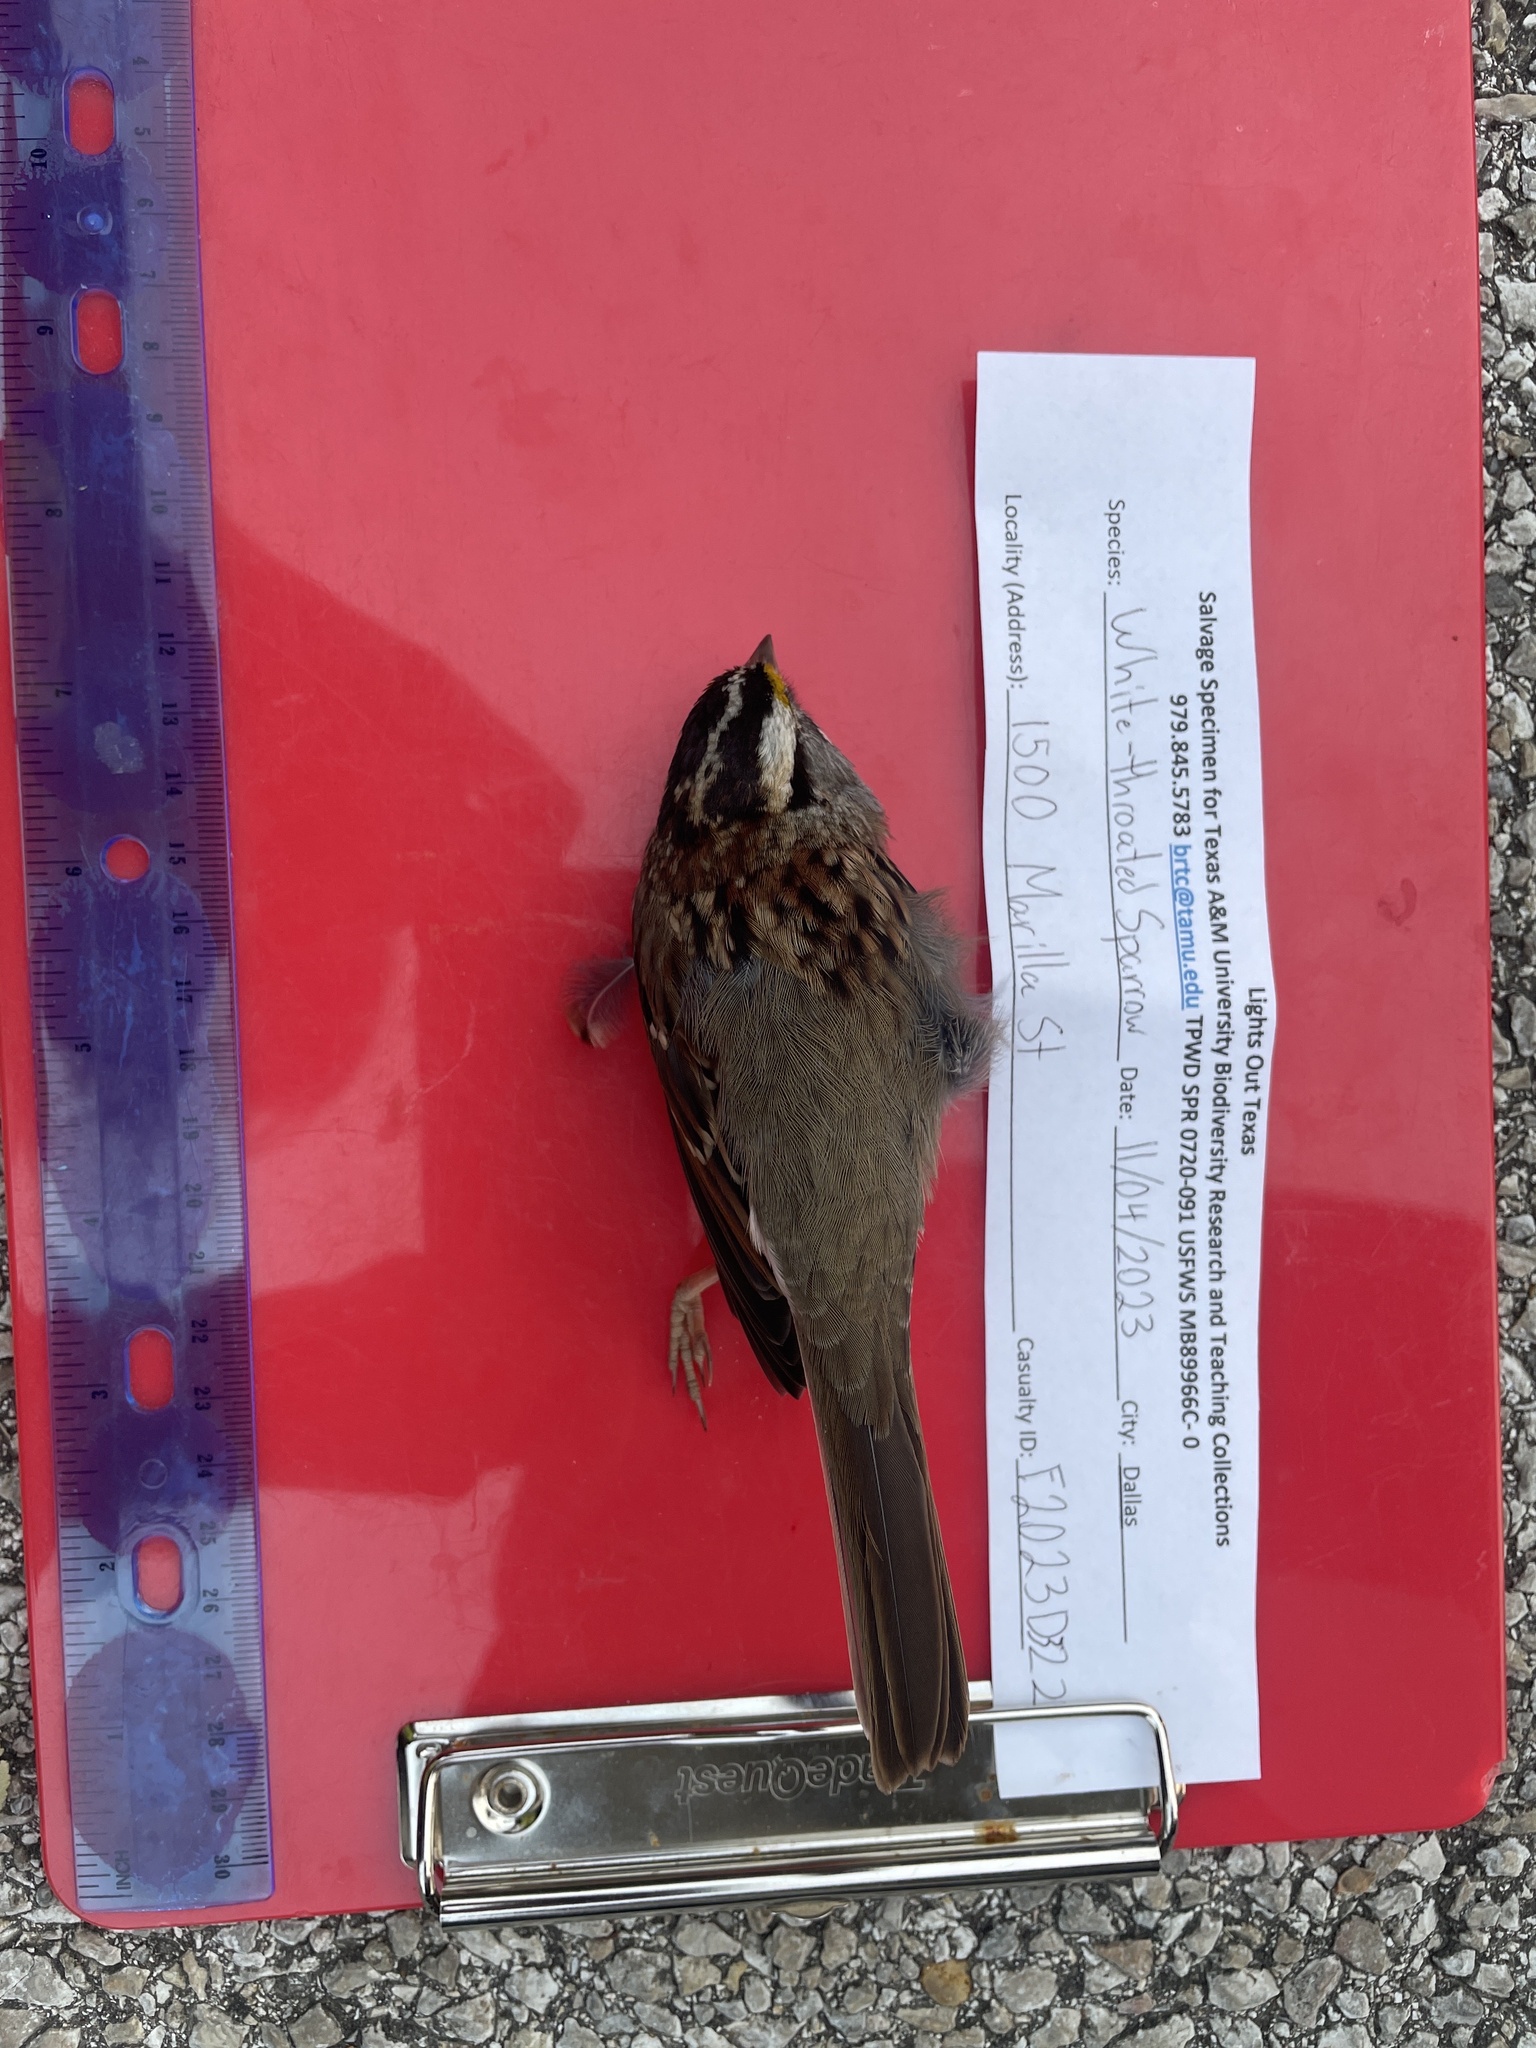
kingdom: Animalia
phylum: Chordata
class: Aves
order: Passeriformes
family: Passerellidae
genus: Zonotrichia
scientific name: Zonotrichia albicollis
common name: White-throated sparrow
